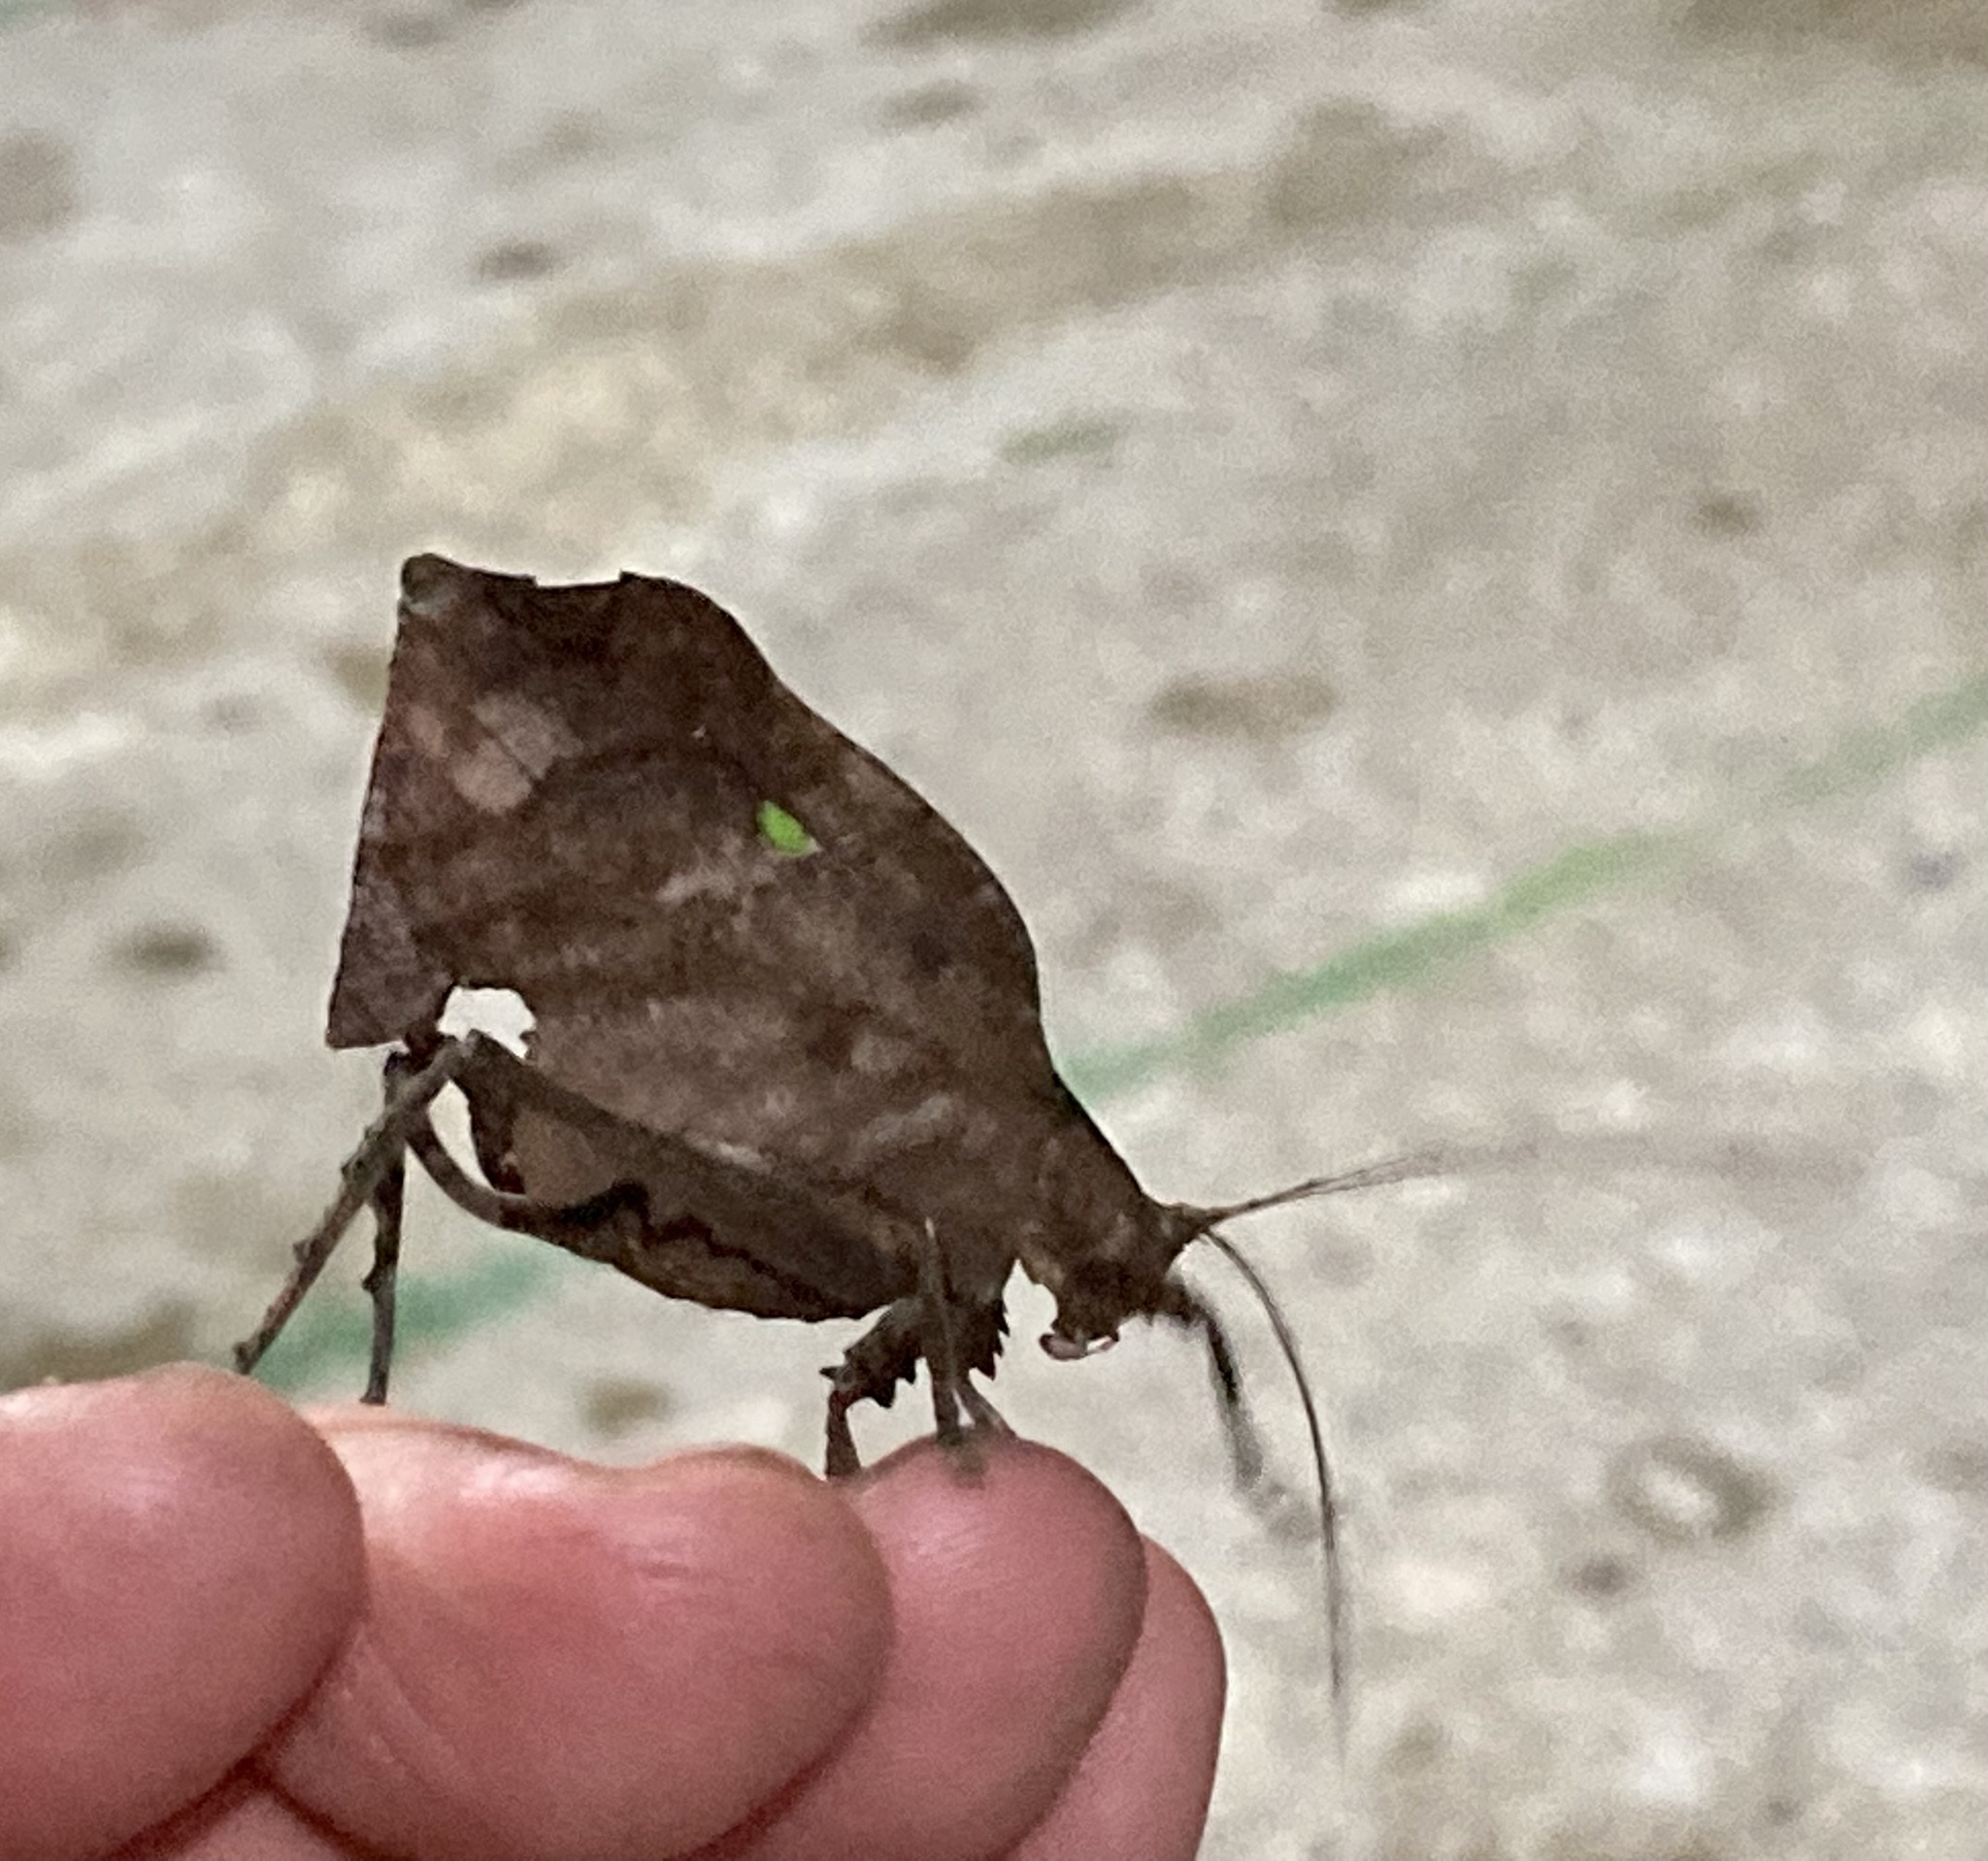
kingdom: Animalia
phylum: Arthropoda
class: Insecta
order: Orthoptera
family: Tettigoniidae
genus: Typophyllum
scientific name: Typophyllum zingara
